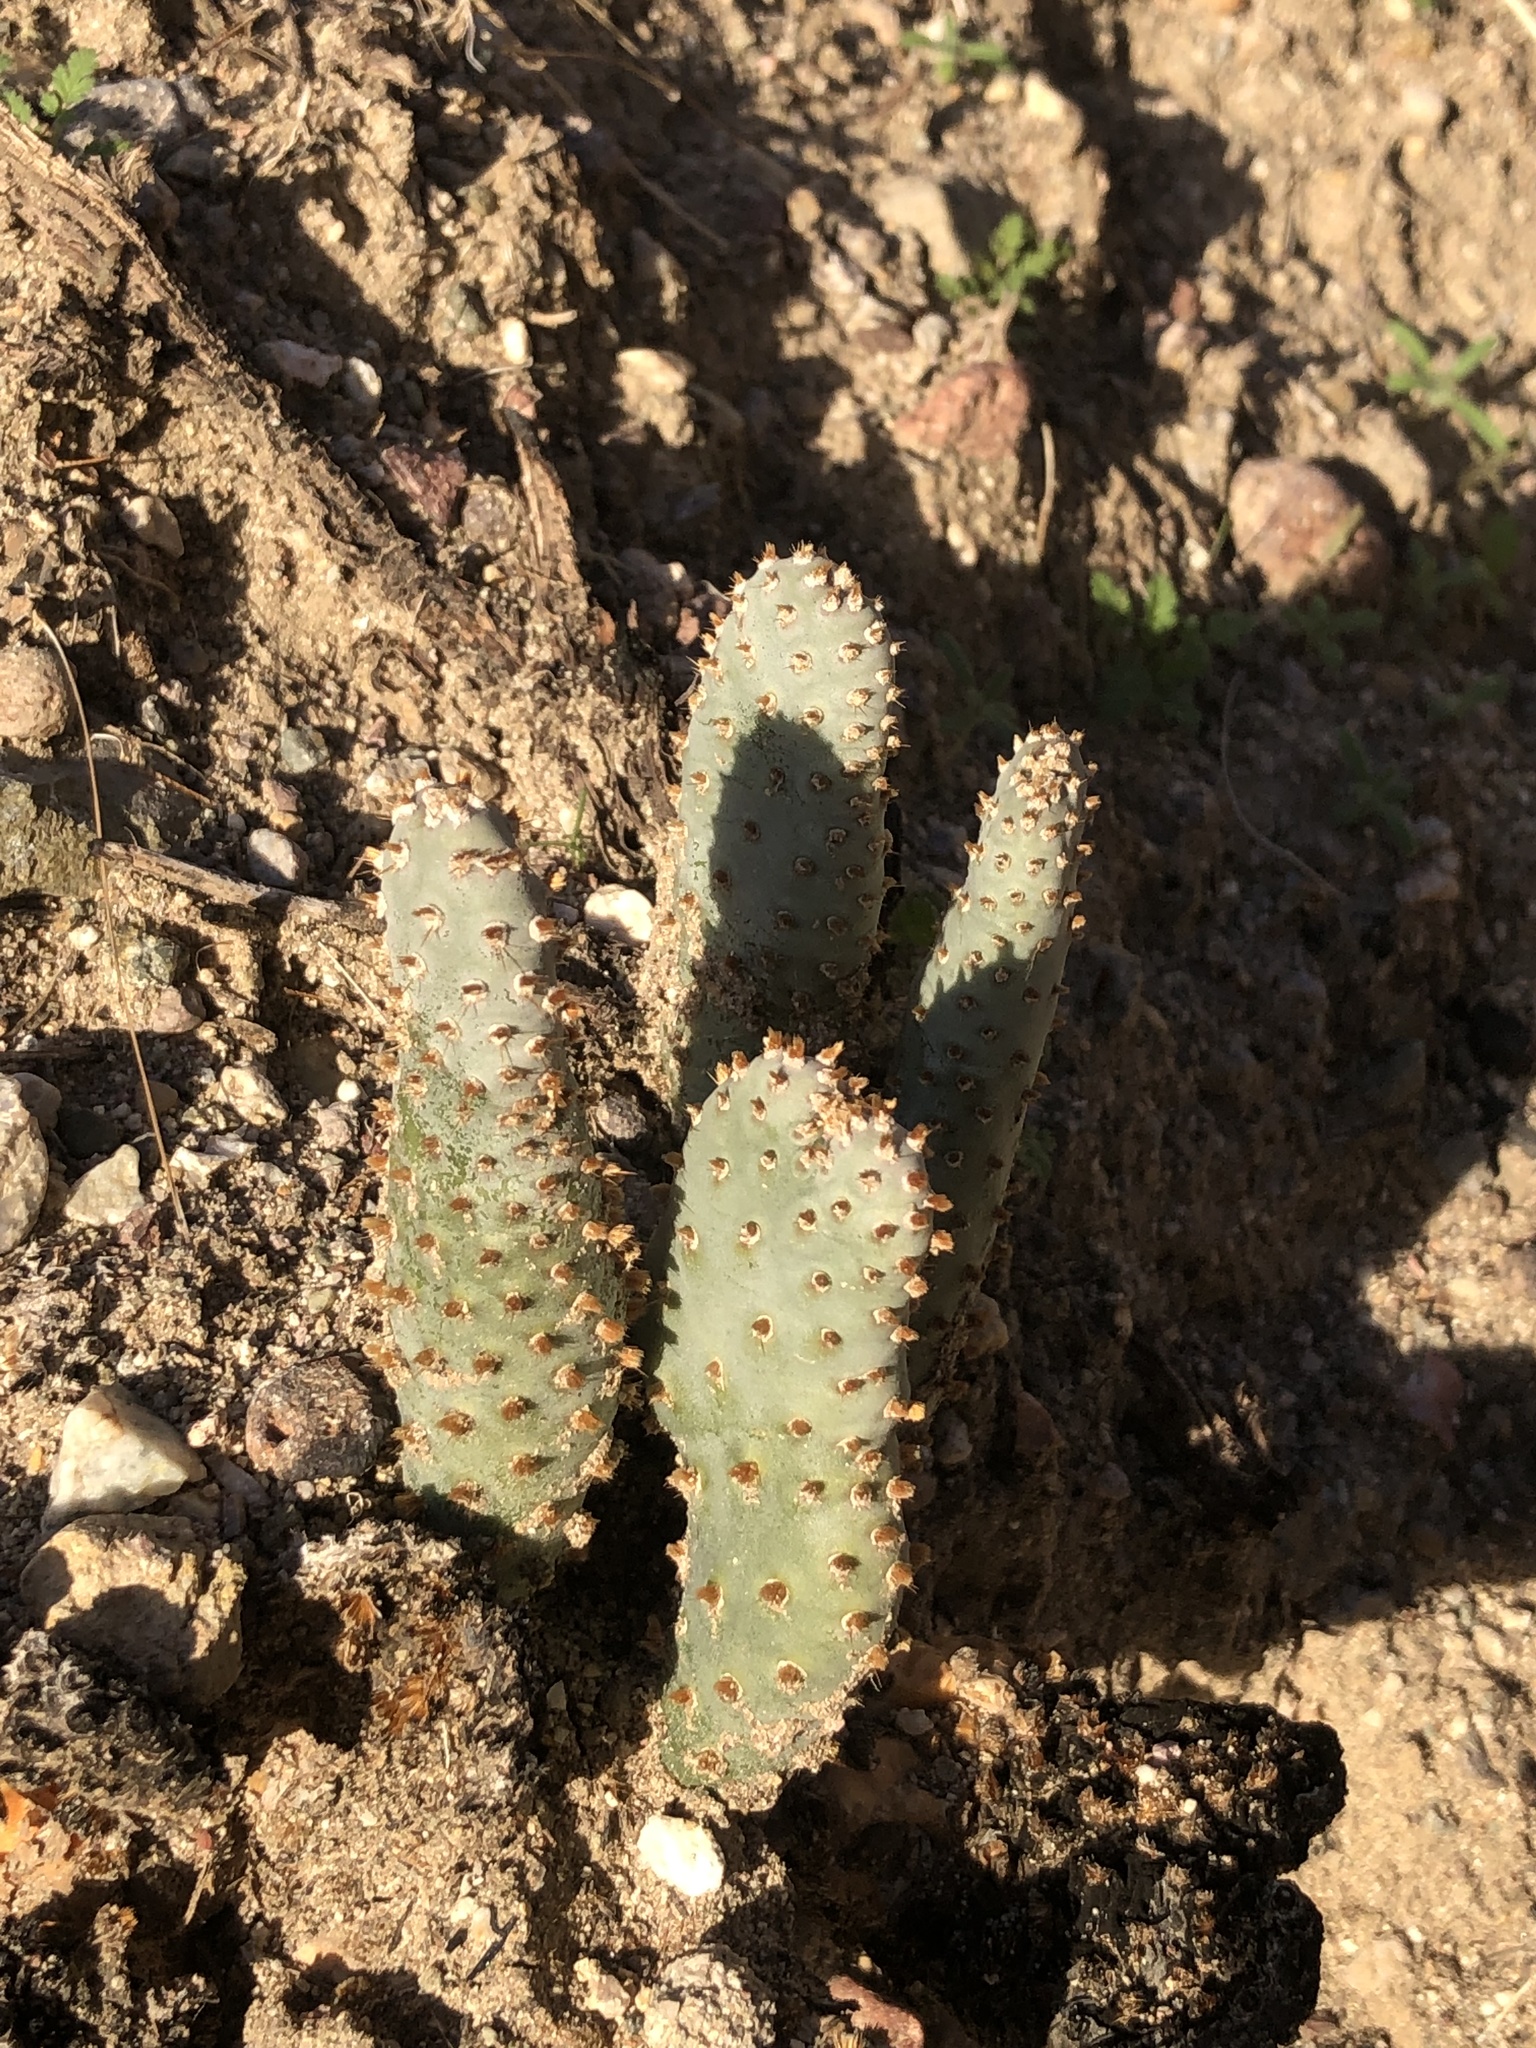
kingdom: Plantae
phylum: Tracheophyta
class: Magnoliopsida
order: Caryophyllales
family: Cactaceae
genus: Opuntia
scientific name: Opuntia basilaris
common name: Beavertail prickly-pear
